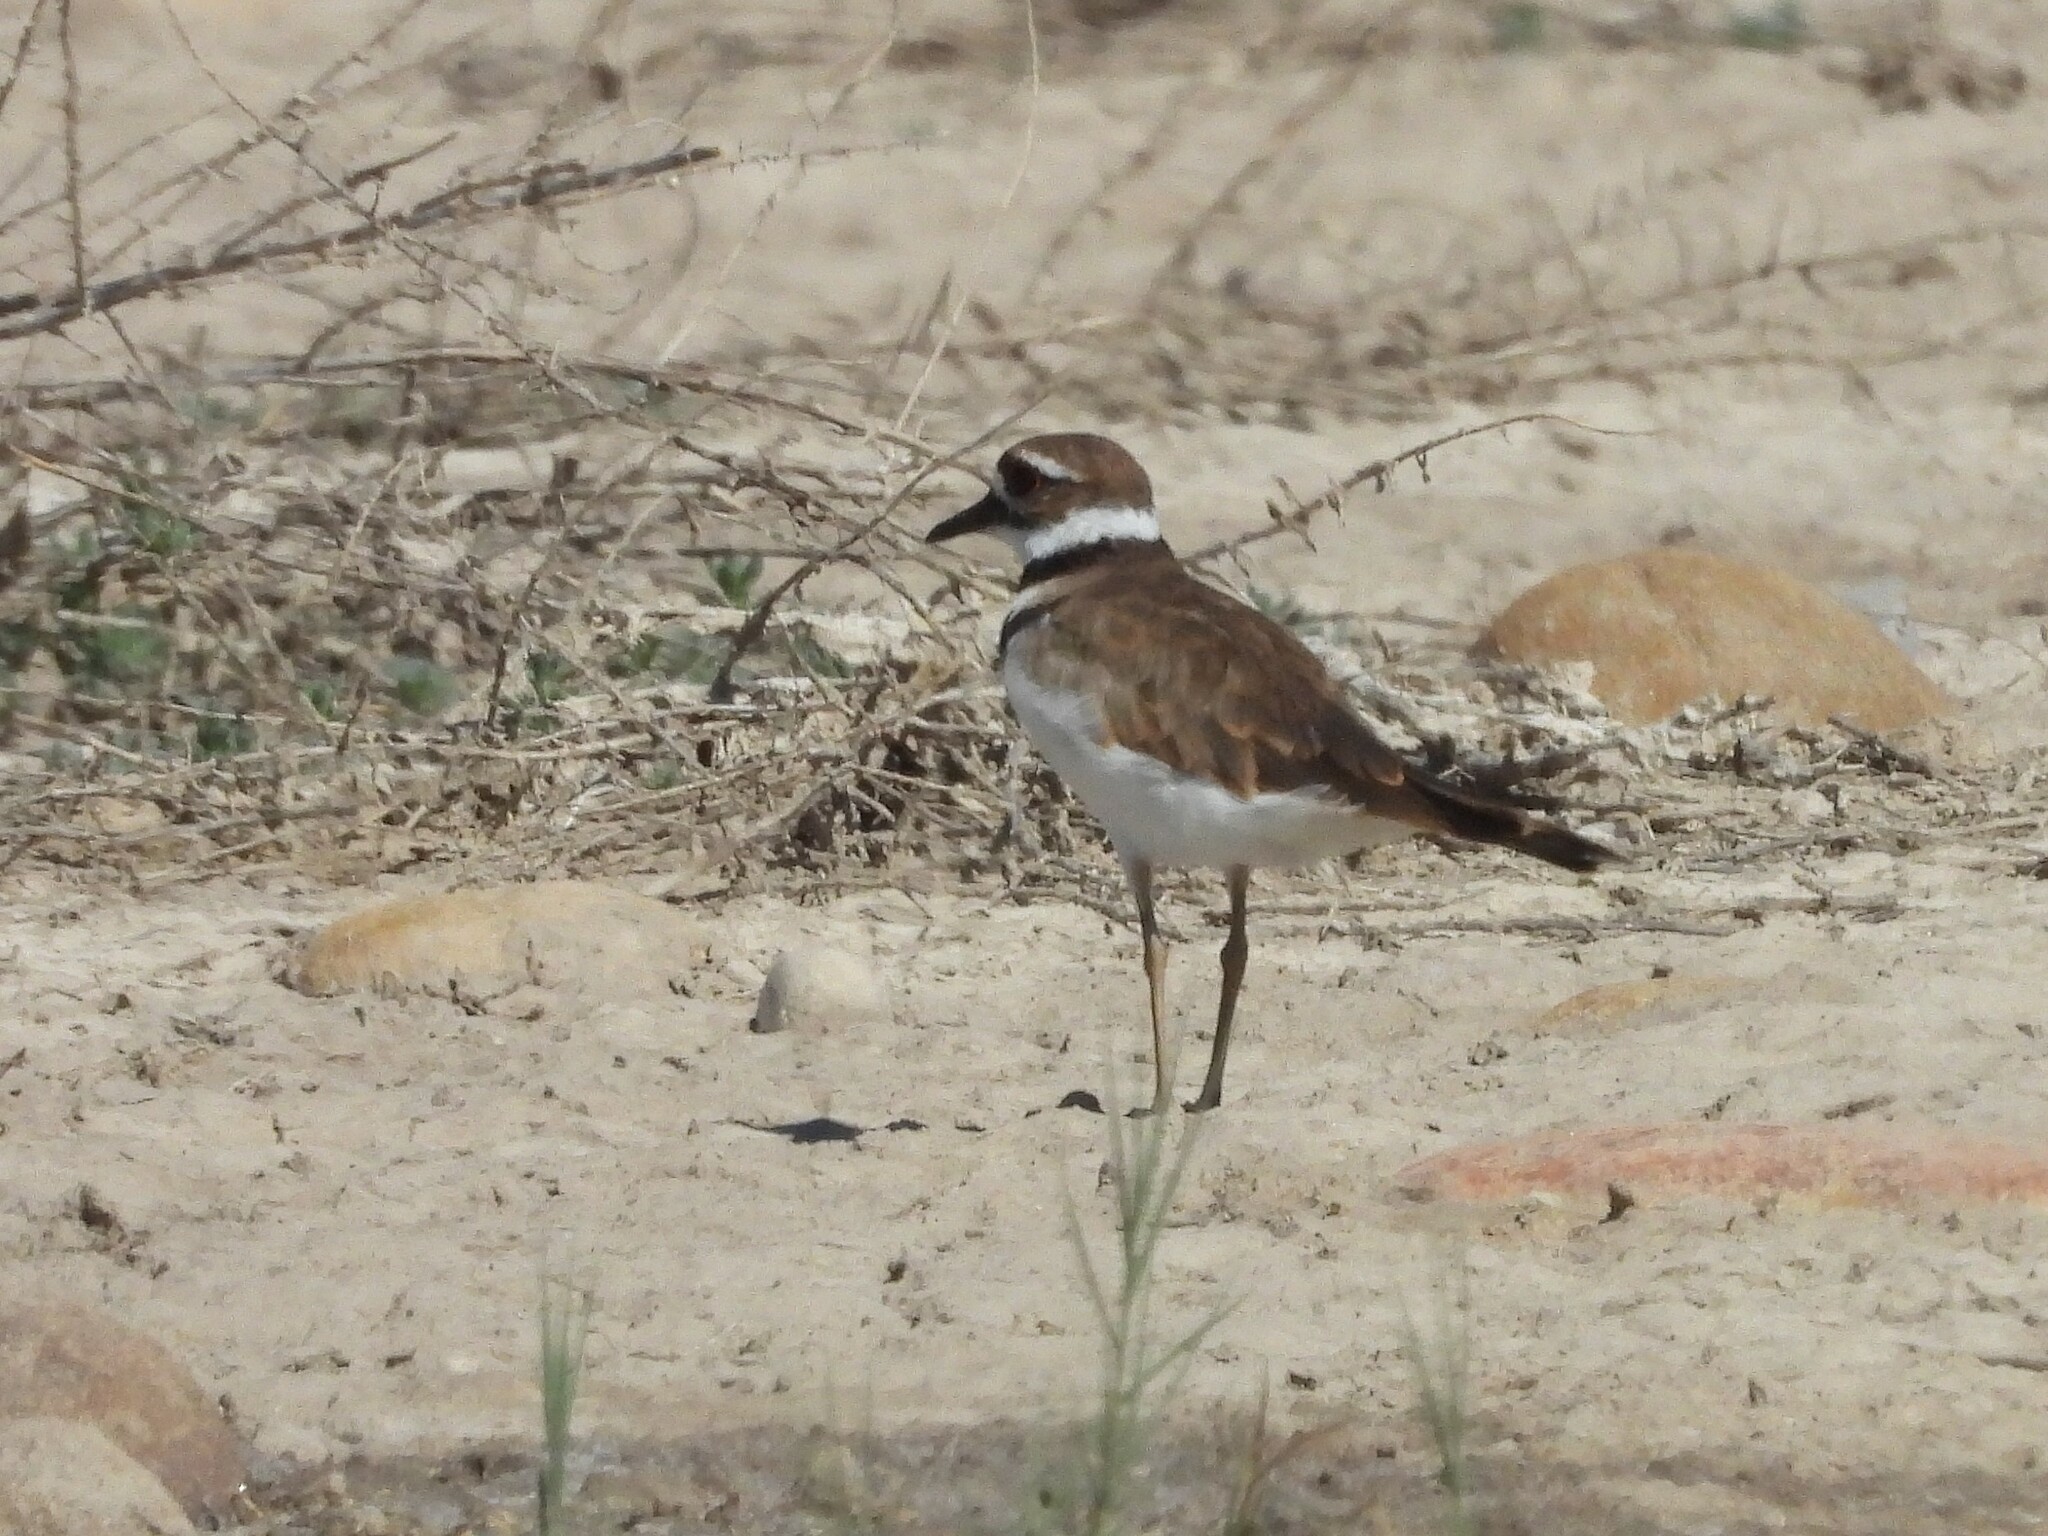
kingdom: Animalia
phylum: Chordata
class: Aves
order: Charadriiformes
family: Charadriidae
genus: Charadrius
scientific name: Charadrius vociferus
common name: Killdeer
